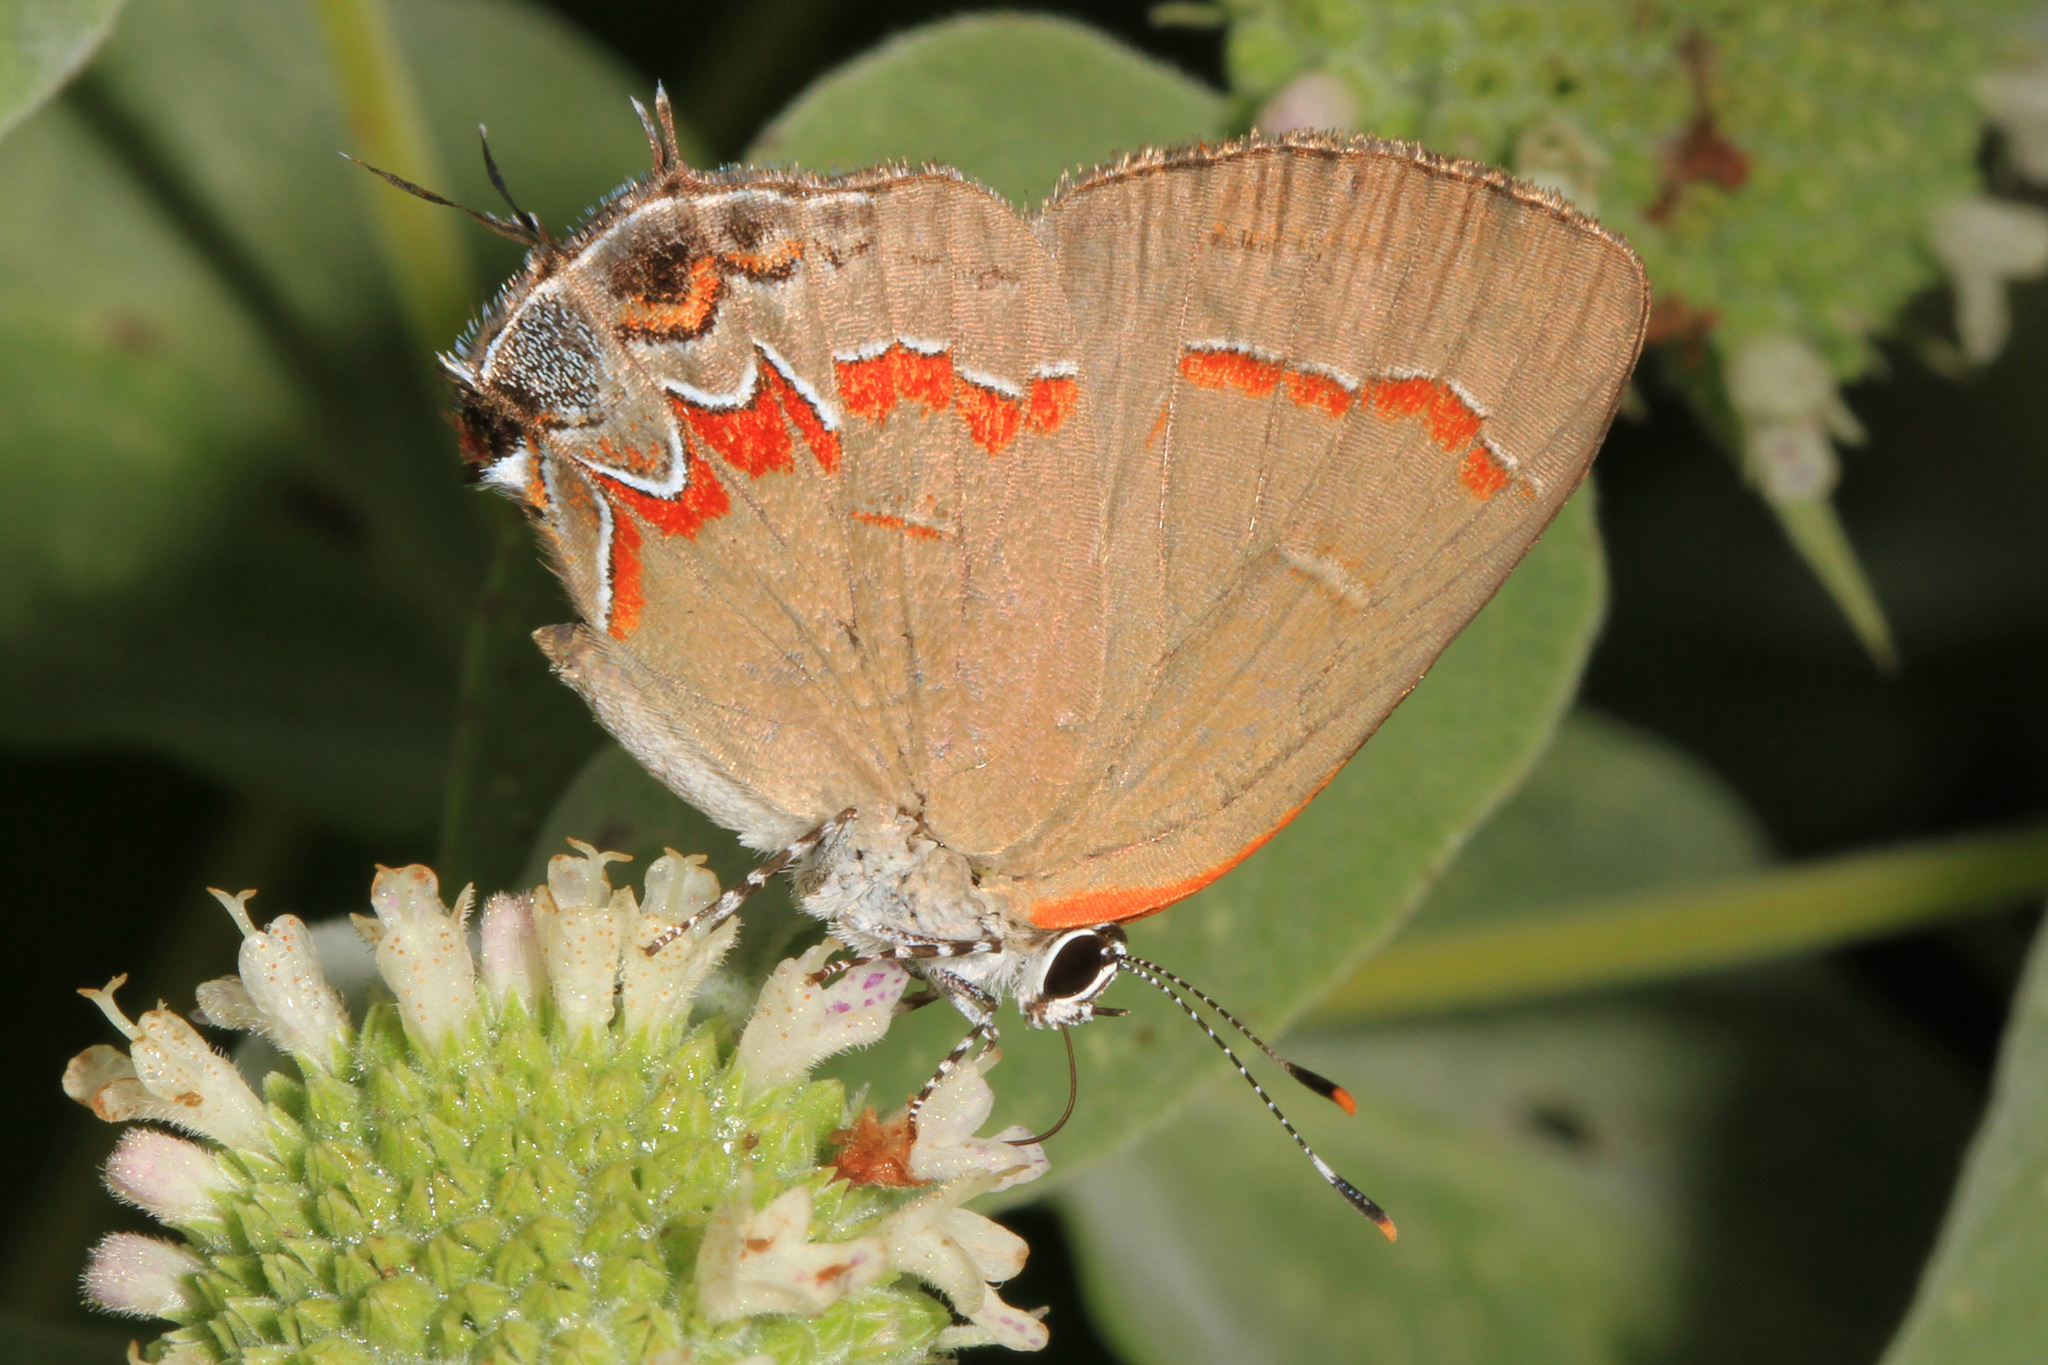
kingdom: Animalia
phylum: Arthropoda
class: Insecta
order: Lepidoptera
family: Lycaenidae
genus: Calycopis
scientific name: Calycopis cecrops
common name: Red-banded hairstreak
